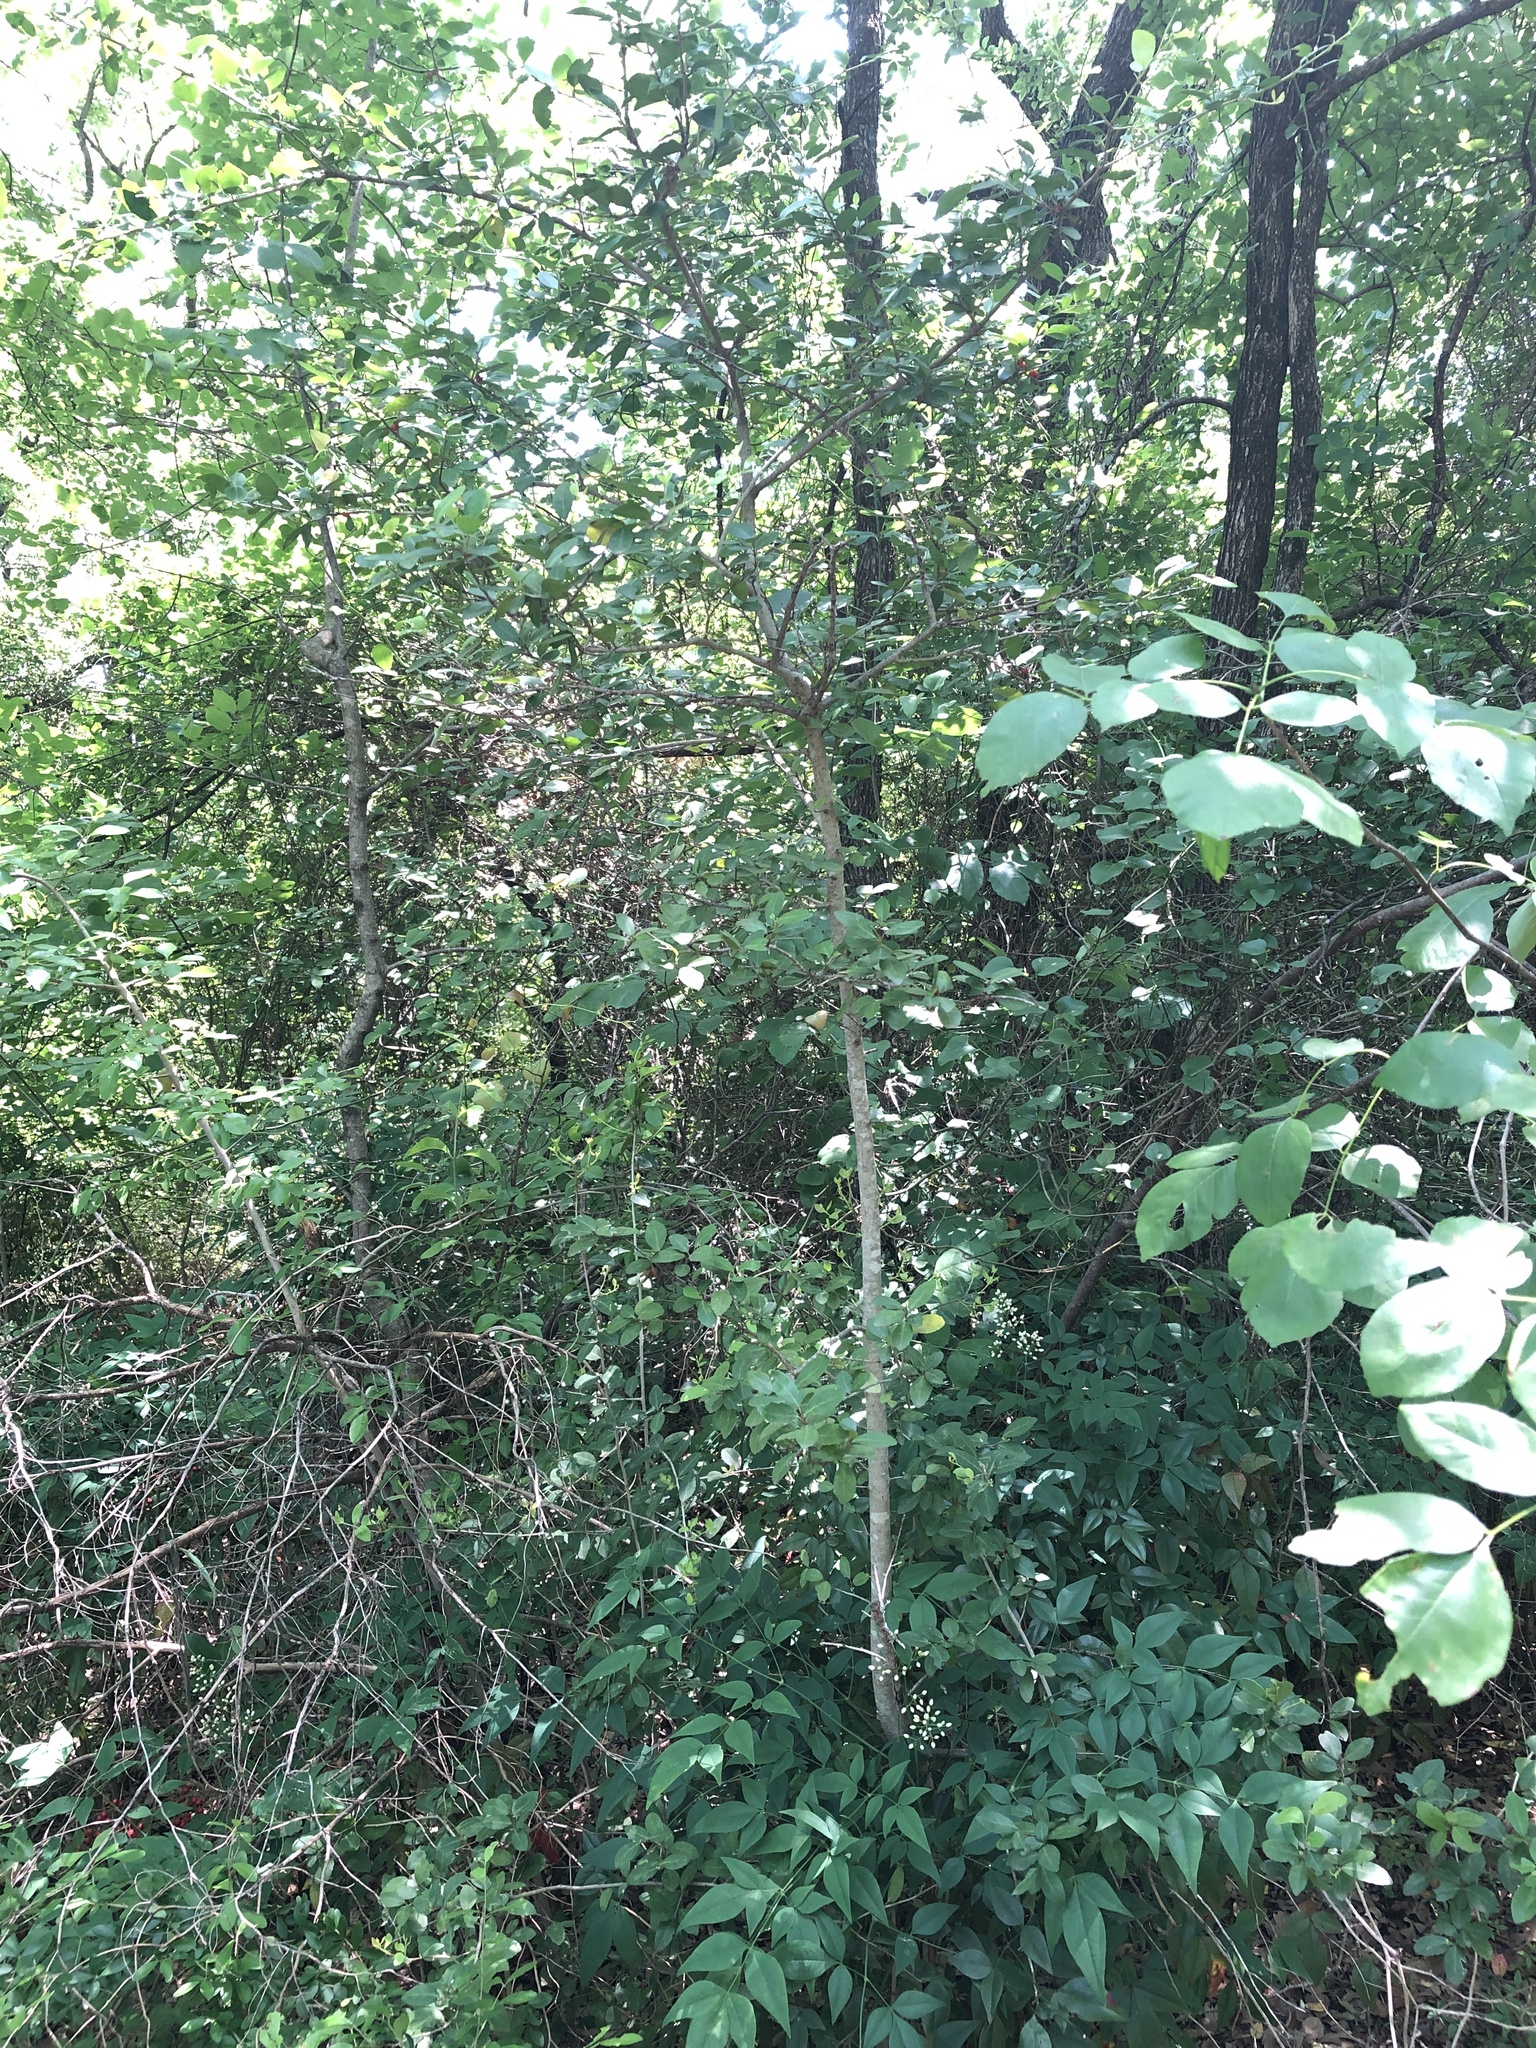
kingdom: Plantae
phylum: Tracheophyta
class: Magnoliopsida
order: Aquifoliales
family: Aquifoliaceae
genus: Ilex
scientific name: Ilex vomitoria
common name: Yaupon holly
